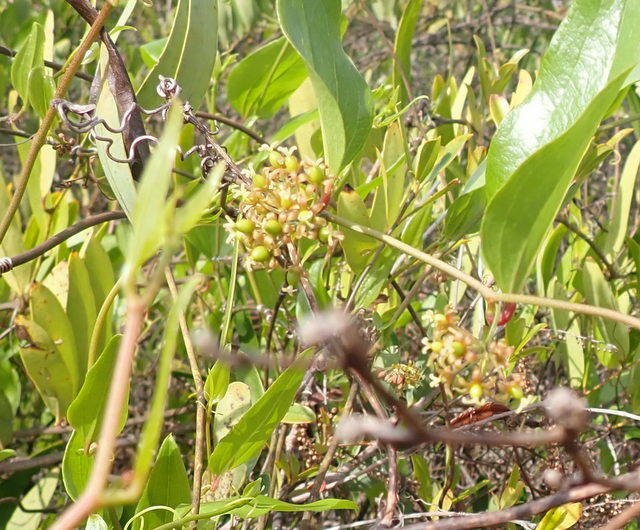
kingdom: Plantae
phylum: Tracheophyta
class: Liliopsida
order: Liliales
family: Smilacaceae
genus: Smilax
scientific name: Smilax auriculata
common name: Wild bamboo
